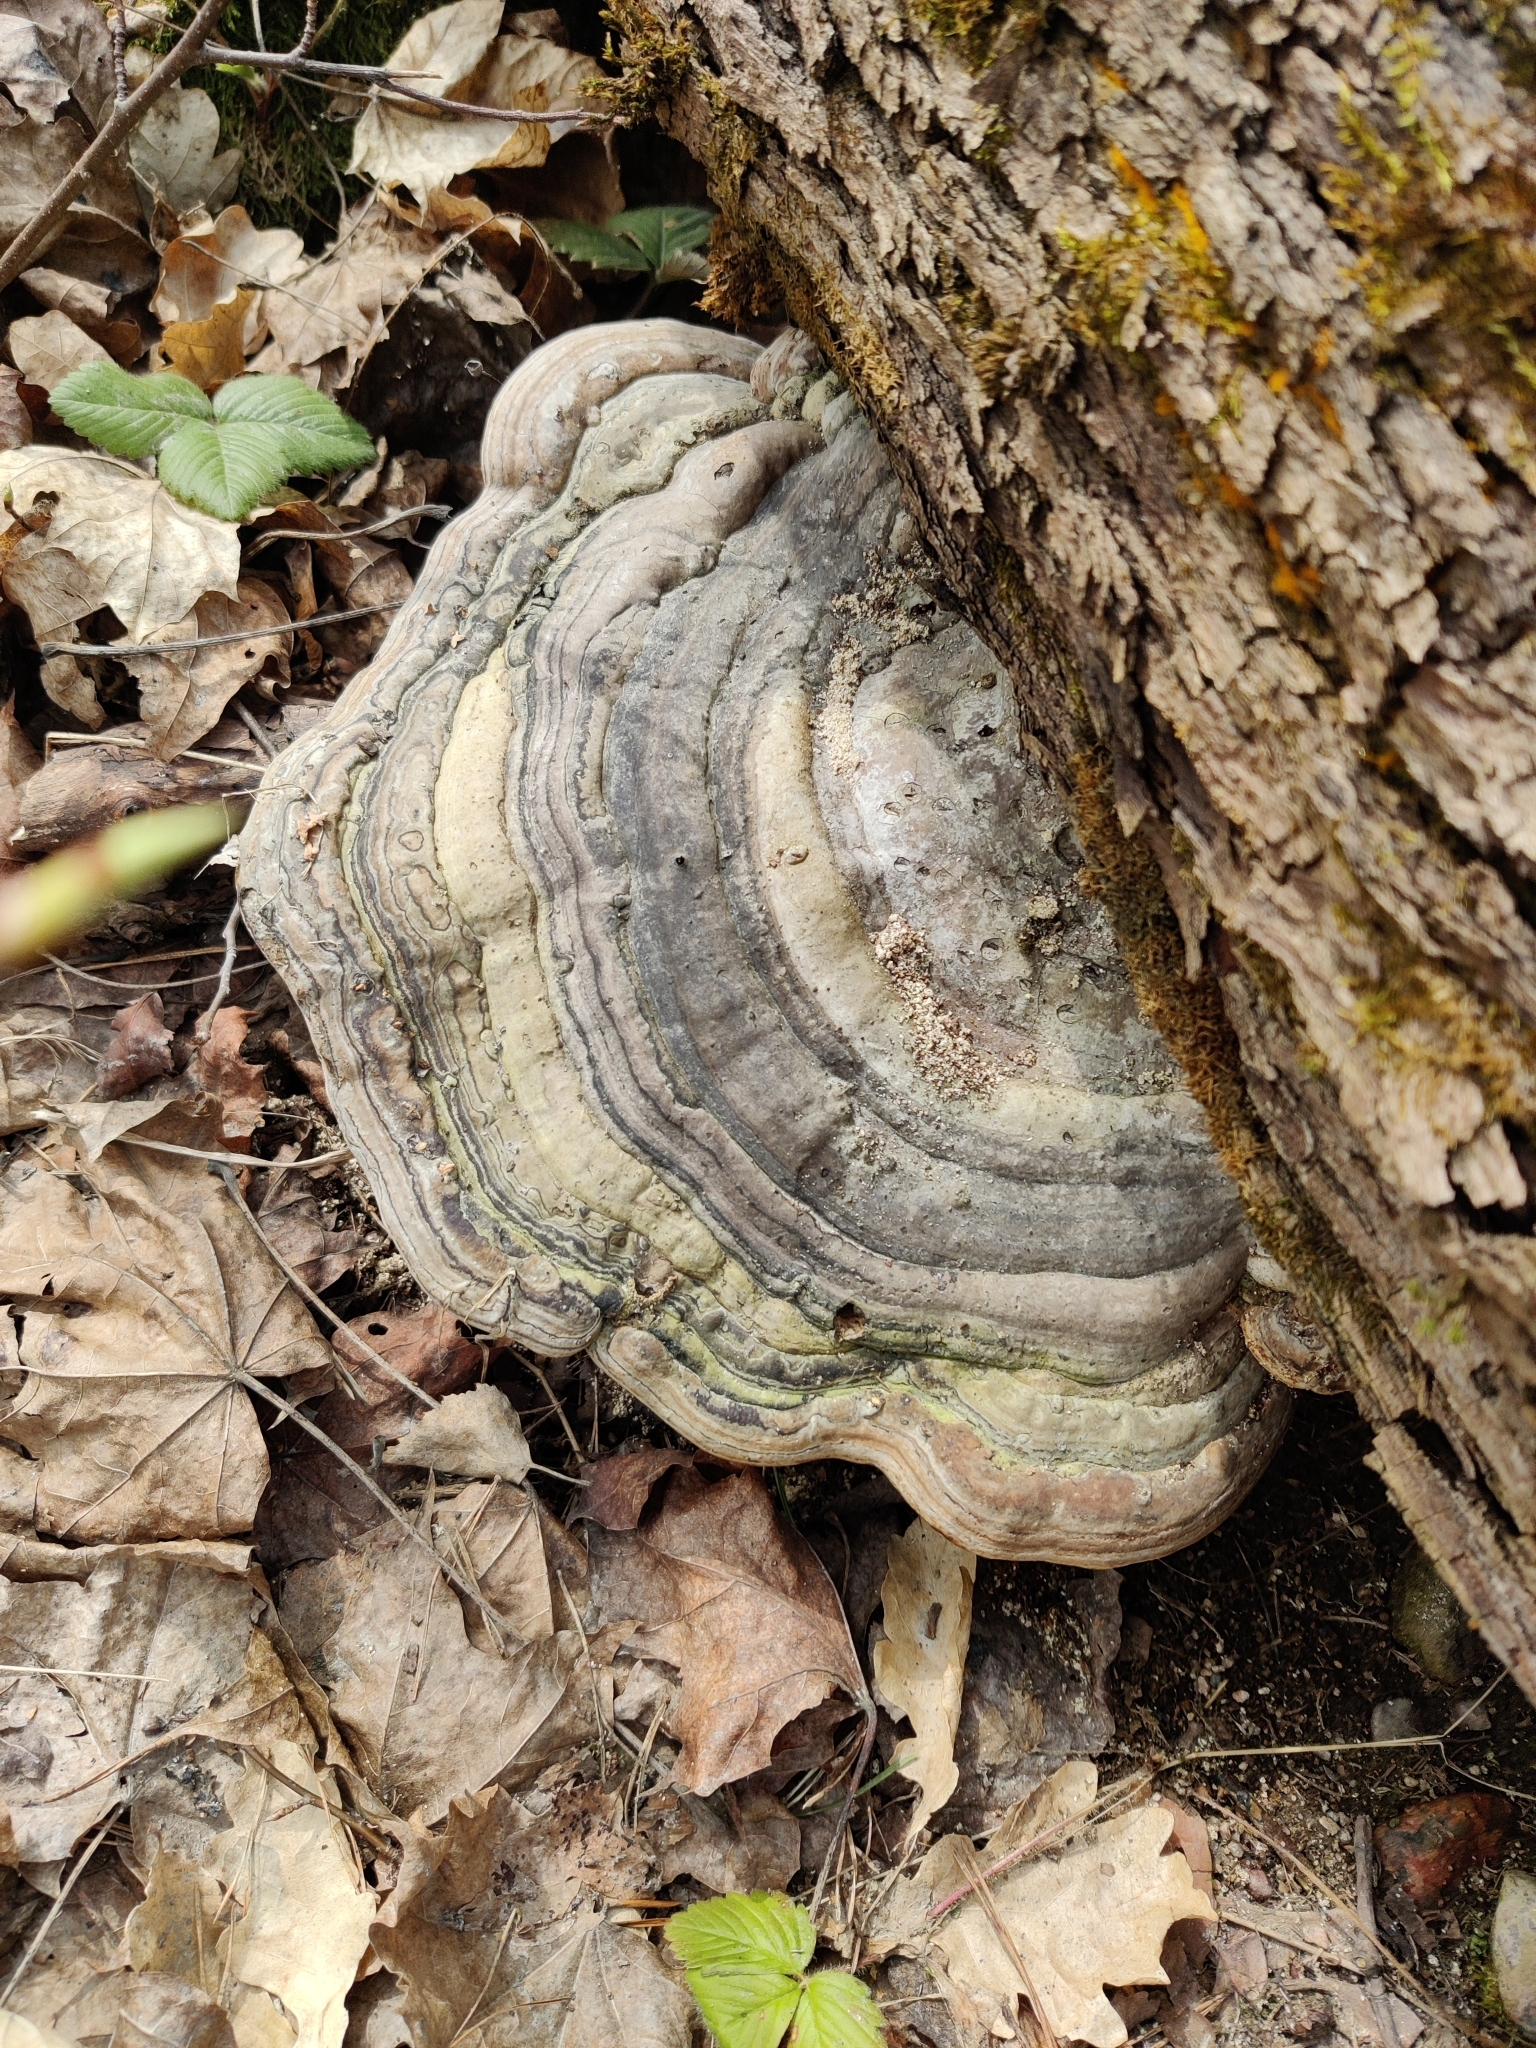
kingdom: Fungi
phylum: Basidiomycota
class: Agaricomycetes
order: Polyporales
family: Polyporaceae
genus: Fomes
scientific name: Fomes fomentarius
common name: Hoof fungus
